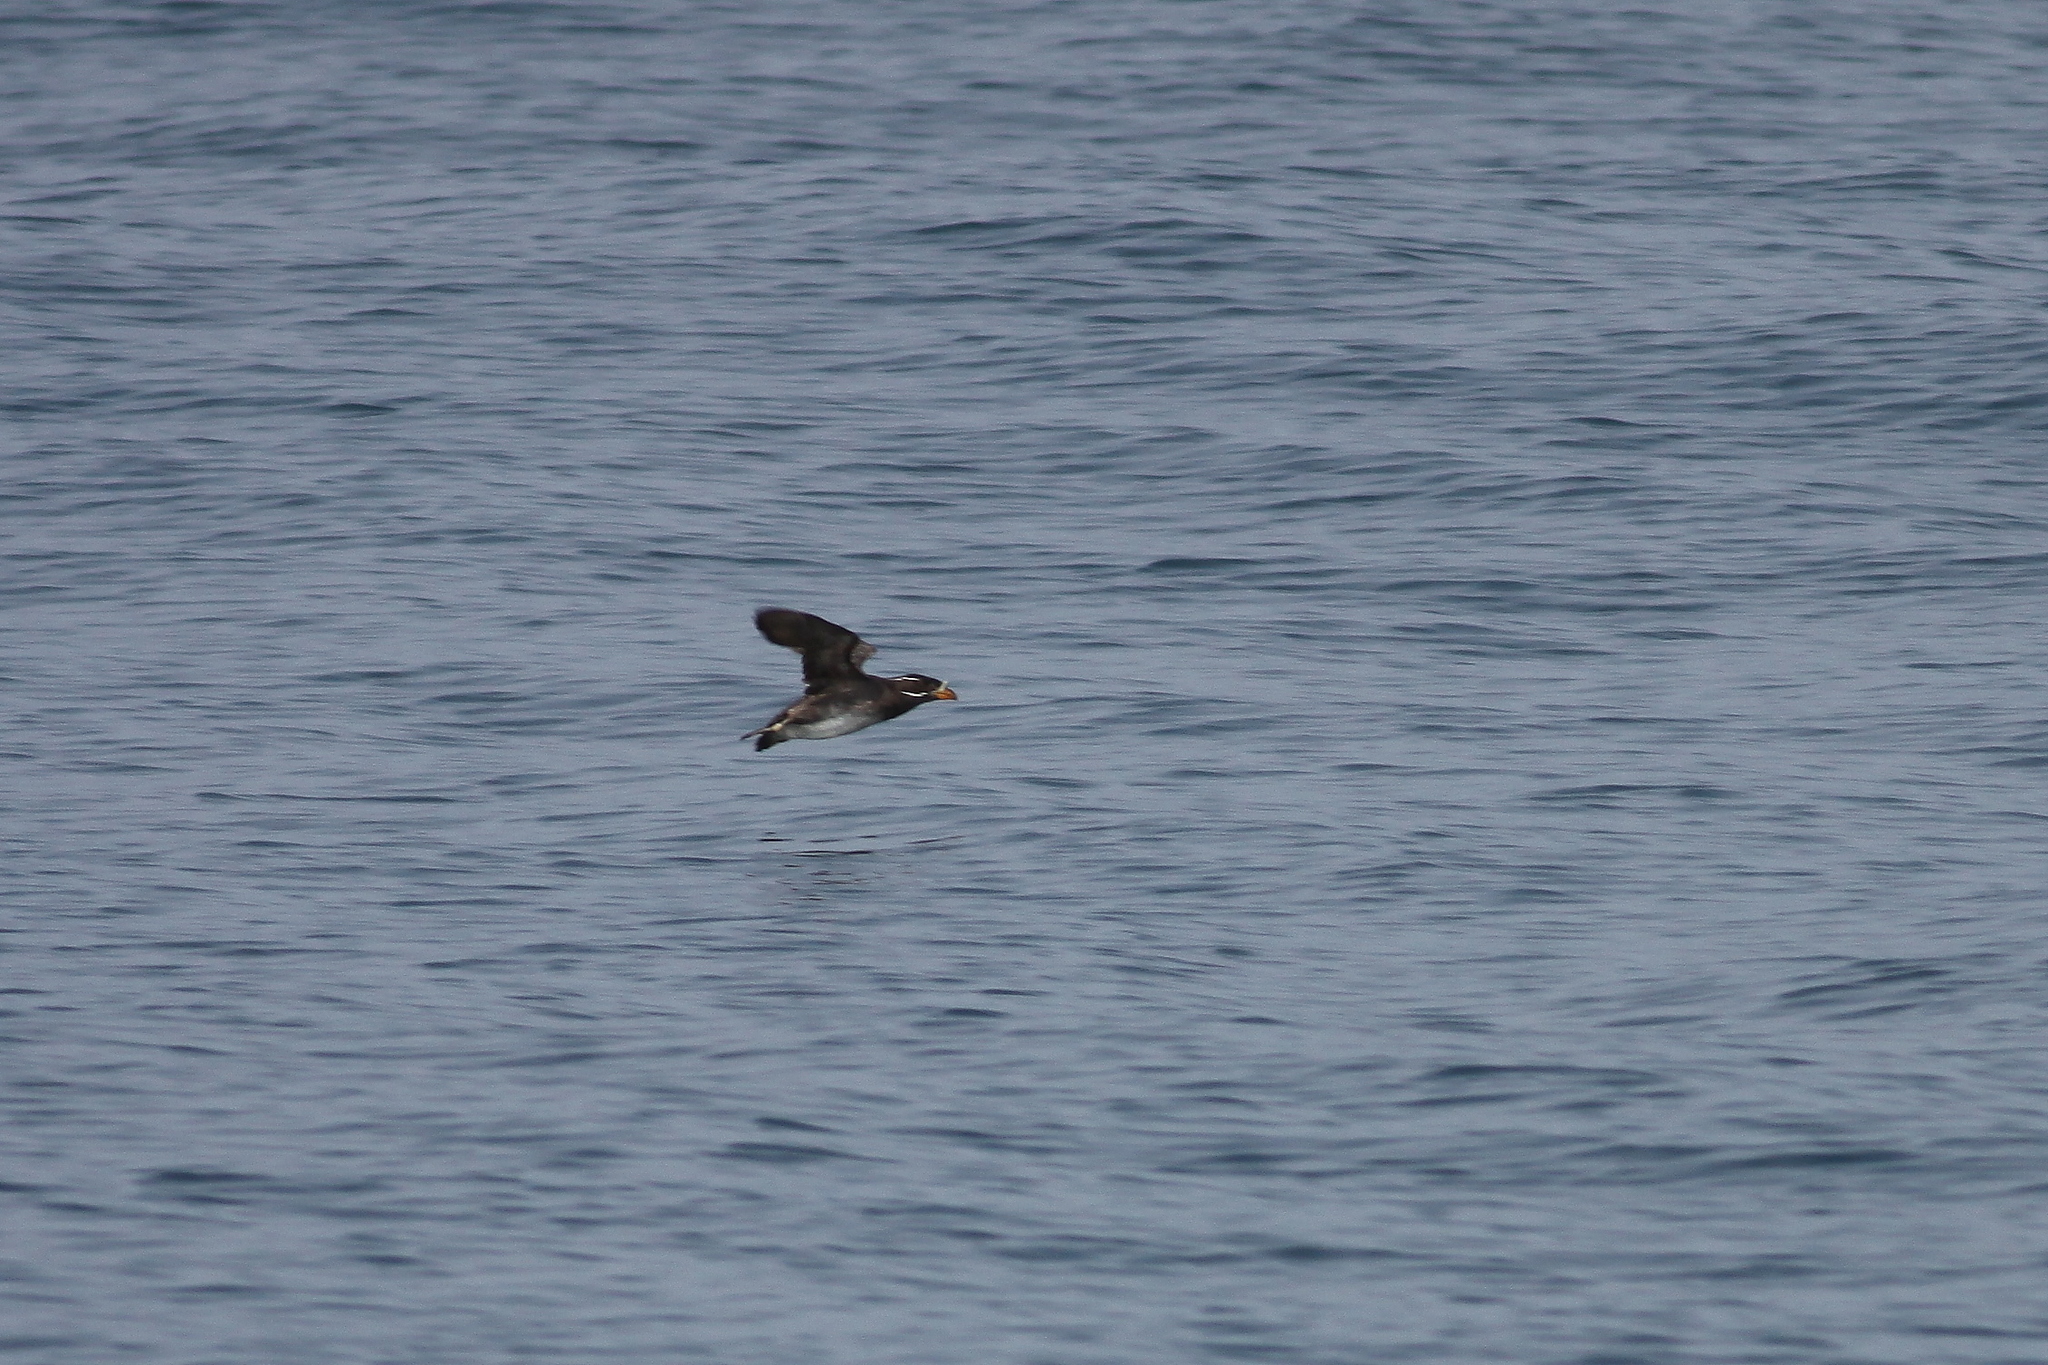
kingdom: Animalia
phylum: Chordata
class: Aves
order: Charadriiformes
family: Alcidae
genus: Cerorhinca
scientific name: Cerorhinca monocerata
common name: Rhinoceros auklet
